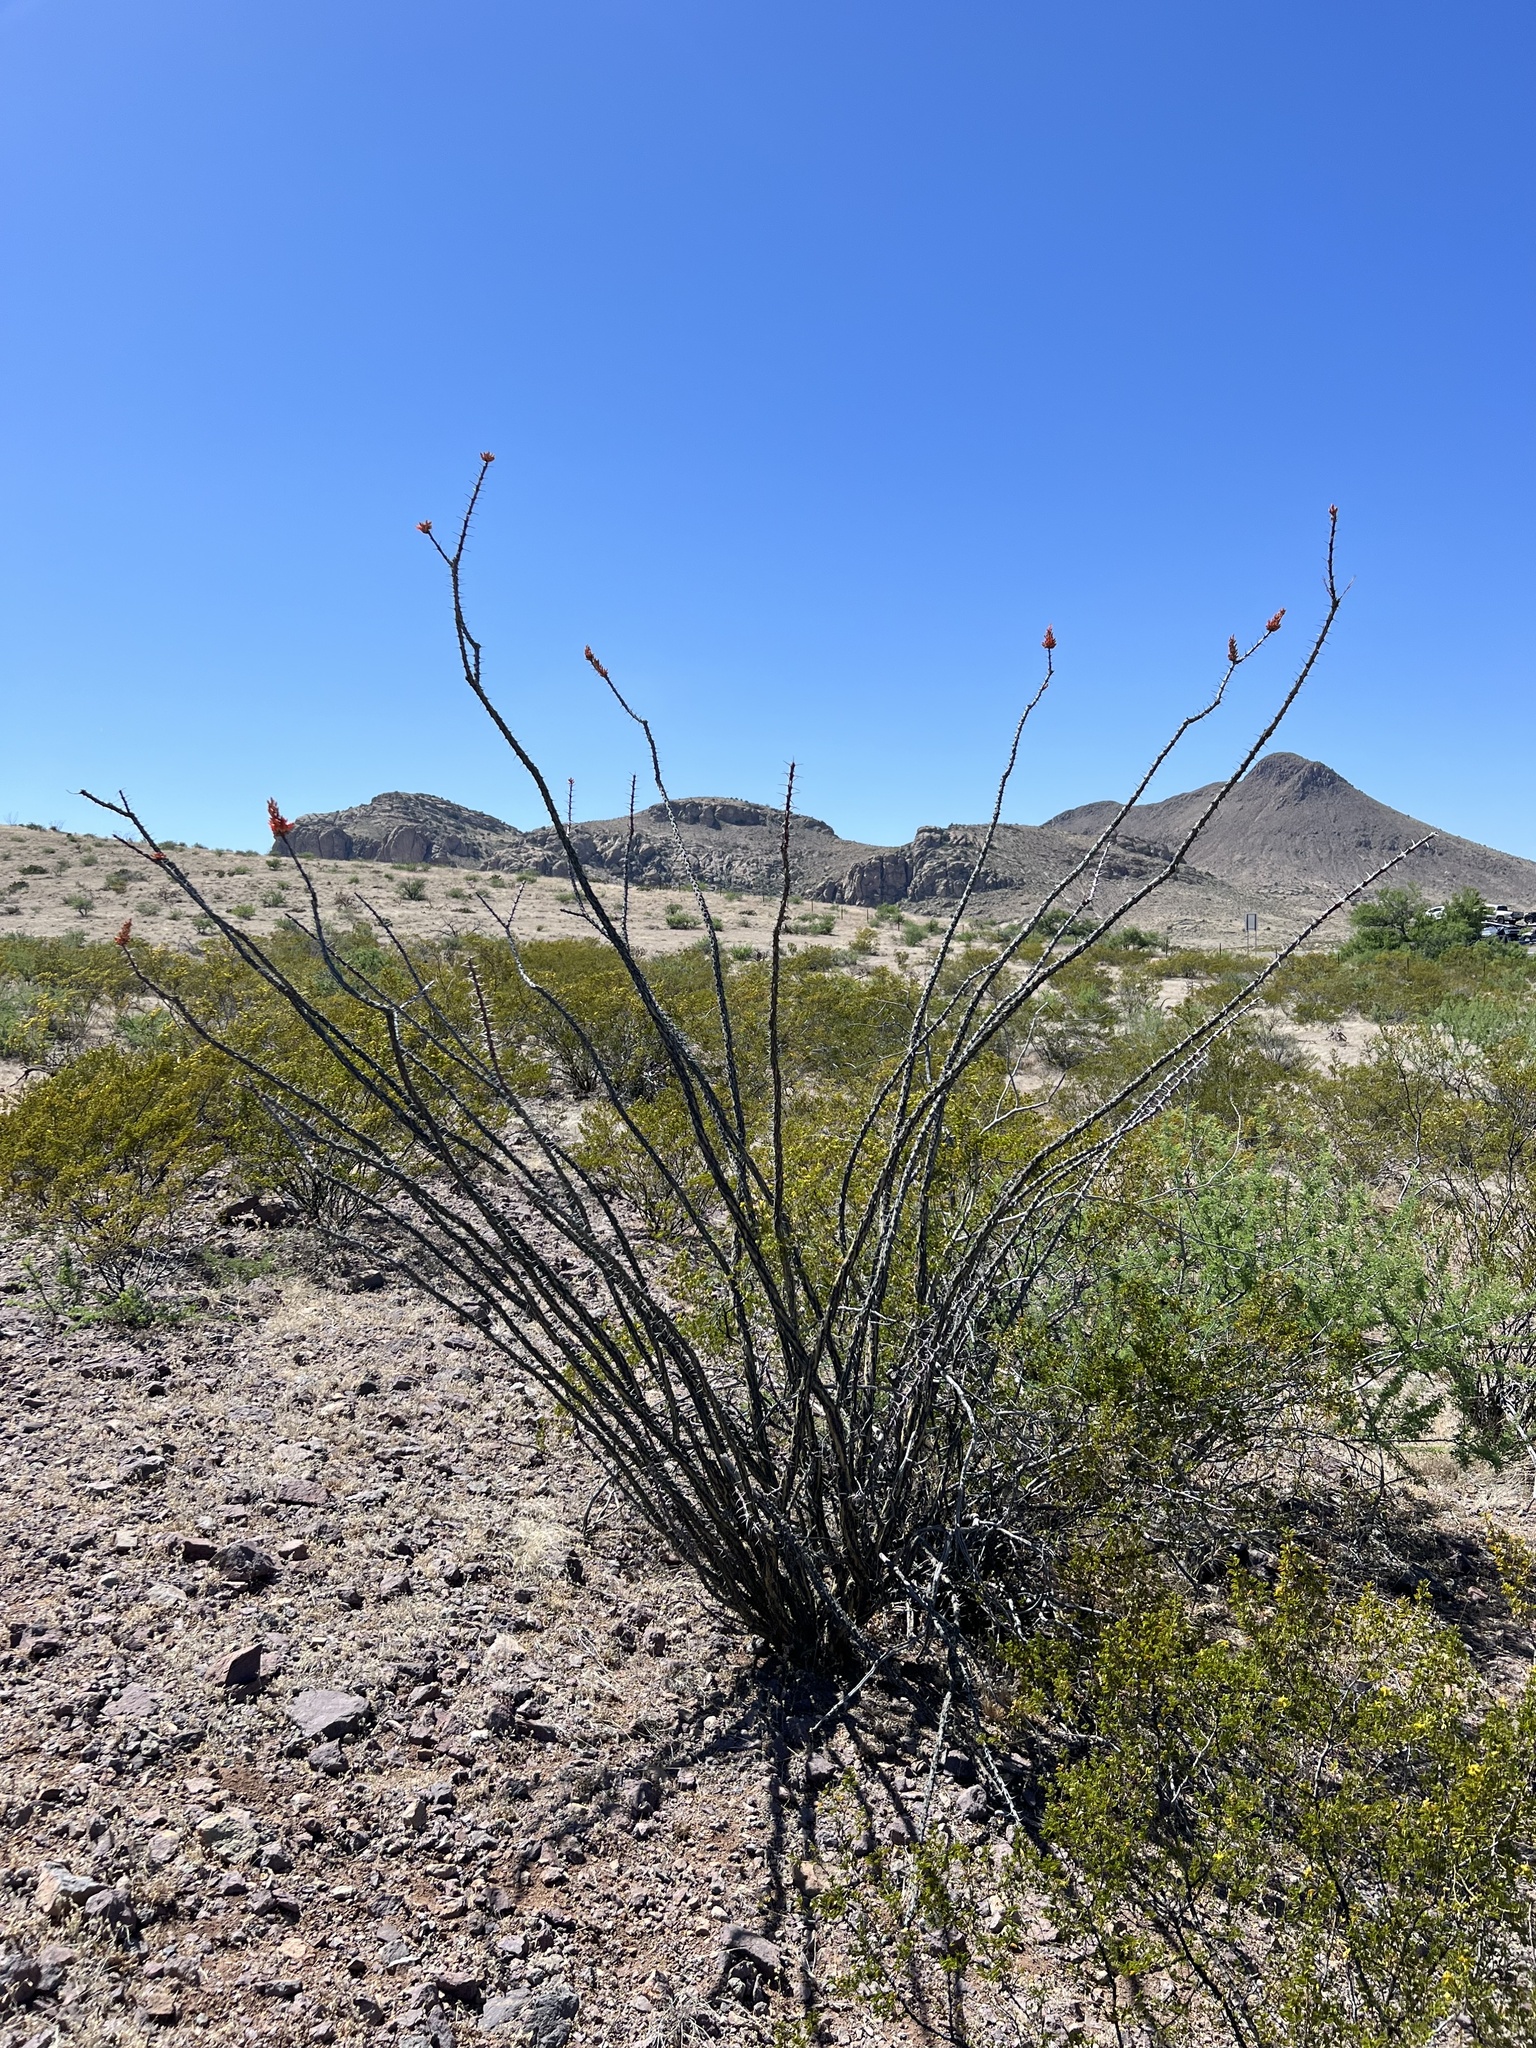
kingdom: Plantae
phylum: Tracheophyta
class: Magnoliopsida
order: Ericales
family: Fouquieriaceae
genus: Fouquieria
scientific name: Fouquieria splendens
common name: Vine-cactus
